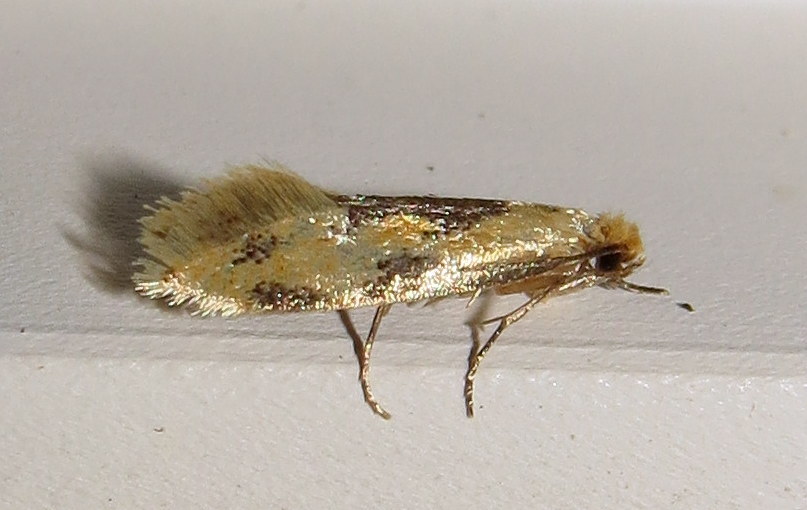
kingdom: Animalia
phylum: Arthropoda
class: Insecta
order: Lepidoptera
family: Meessiidae
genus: Hybroma
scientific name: Hybroma servulella
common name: Yellow wave moth
